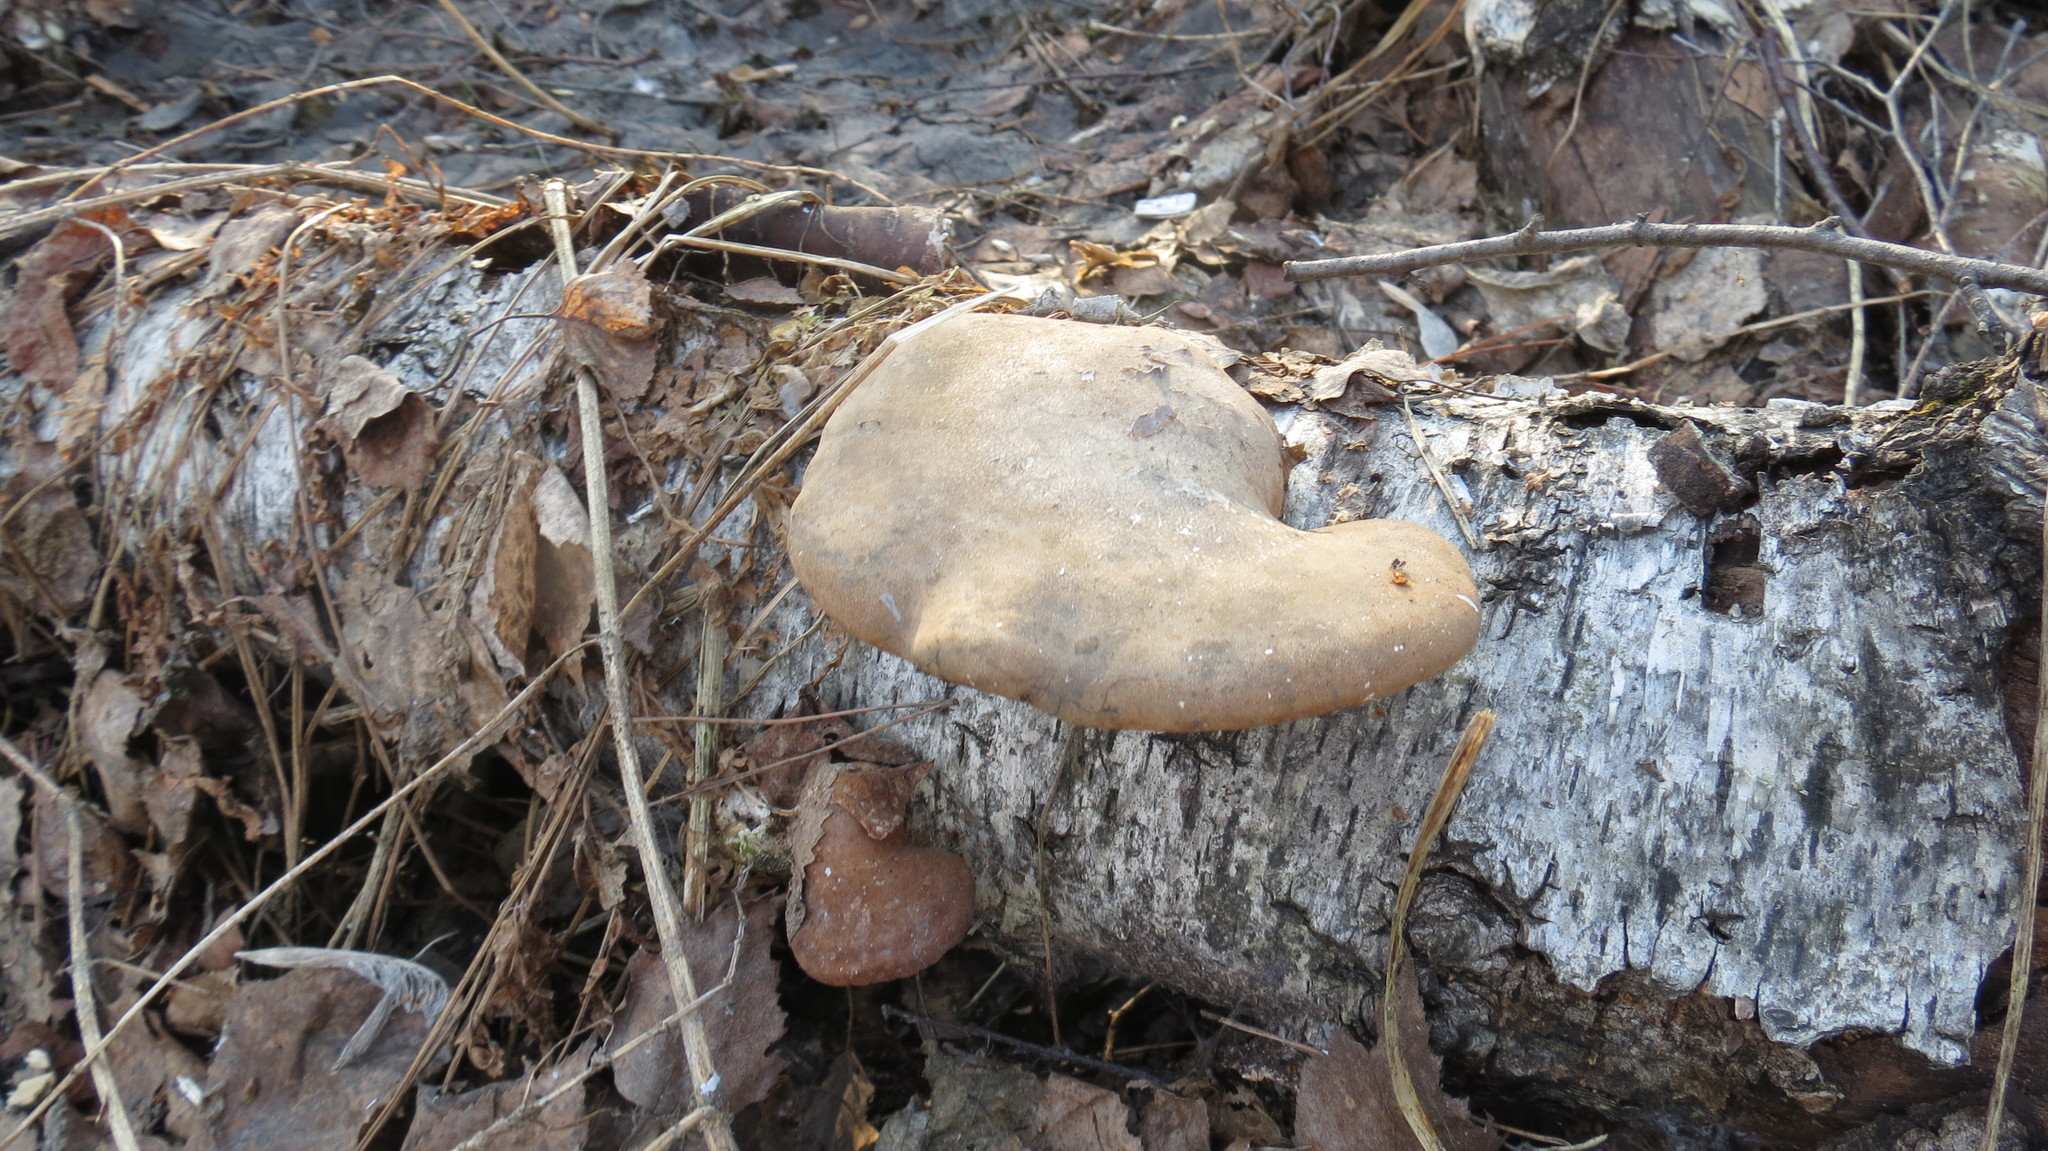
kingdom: Fungi
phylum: Basidiomycota
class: Agaricomycetes
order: Polyporales
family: Fomitopsidaceae
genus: Fomitopsis
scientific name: Fomitopsis betulina
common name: Birch polypore
